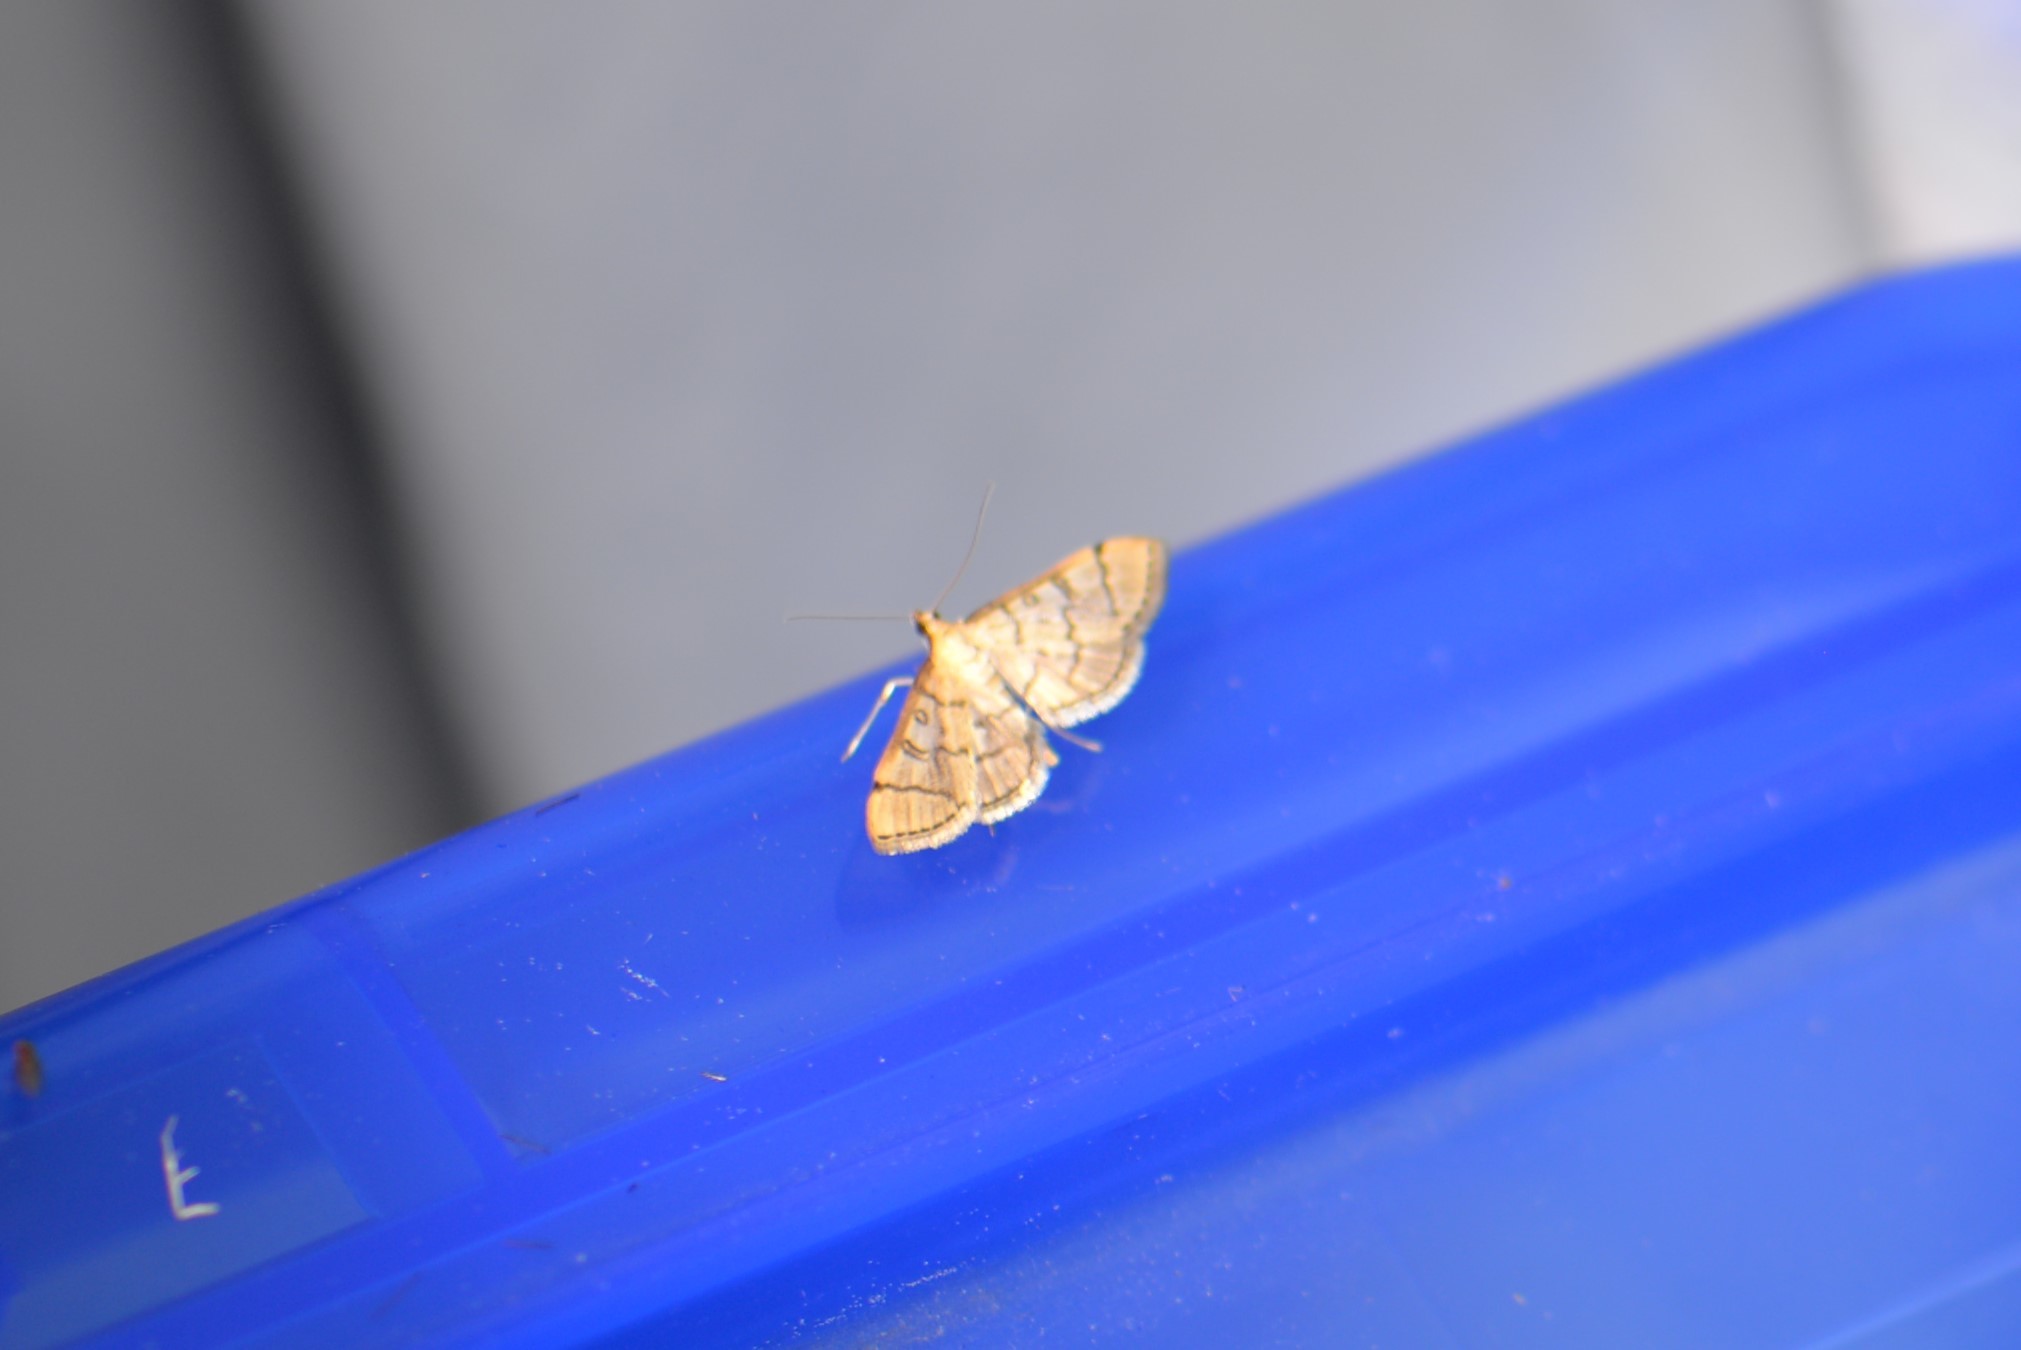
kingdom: Animalia
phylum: Arthropoda
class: Insecta
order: Lepidoptera
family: Crambidae
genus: Lamprosema
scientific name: Lamprosema Blepharomastix ranalis
